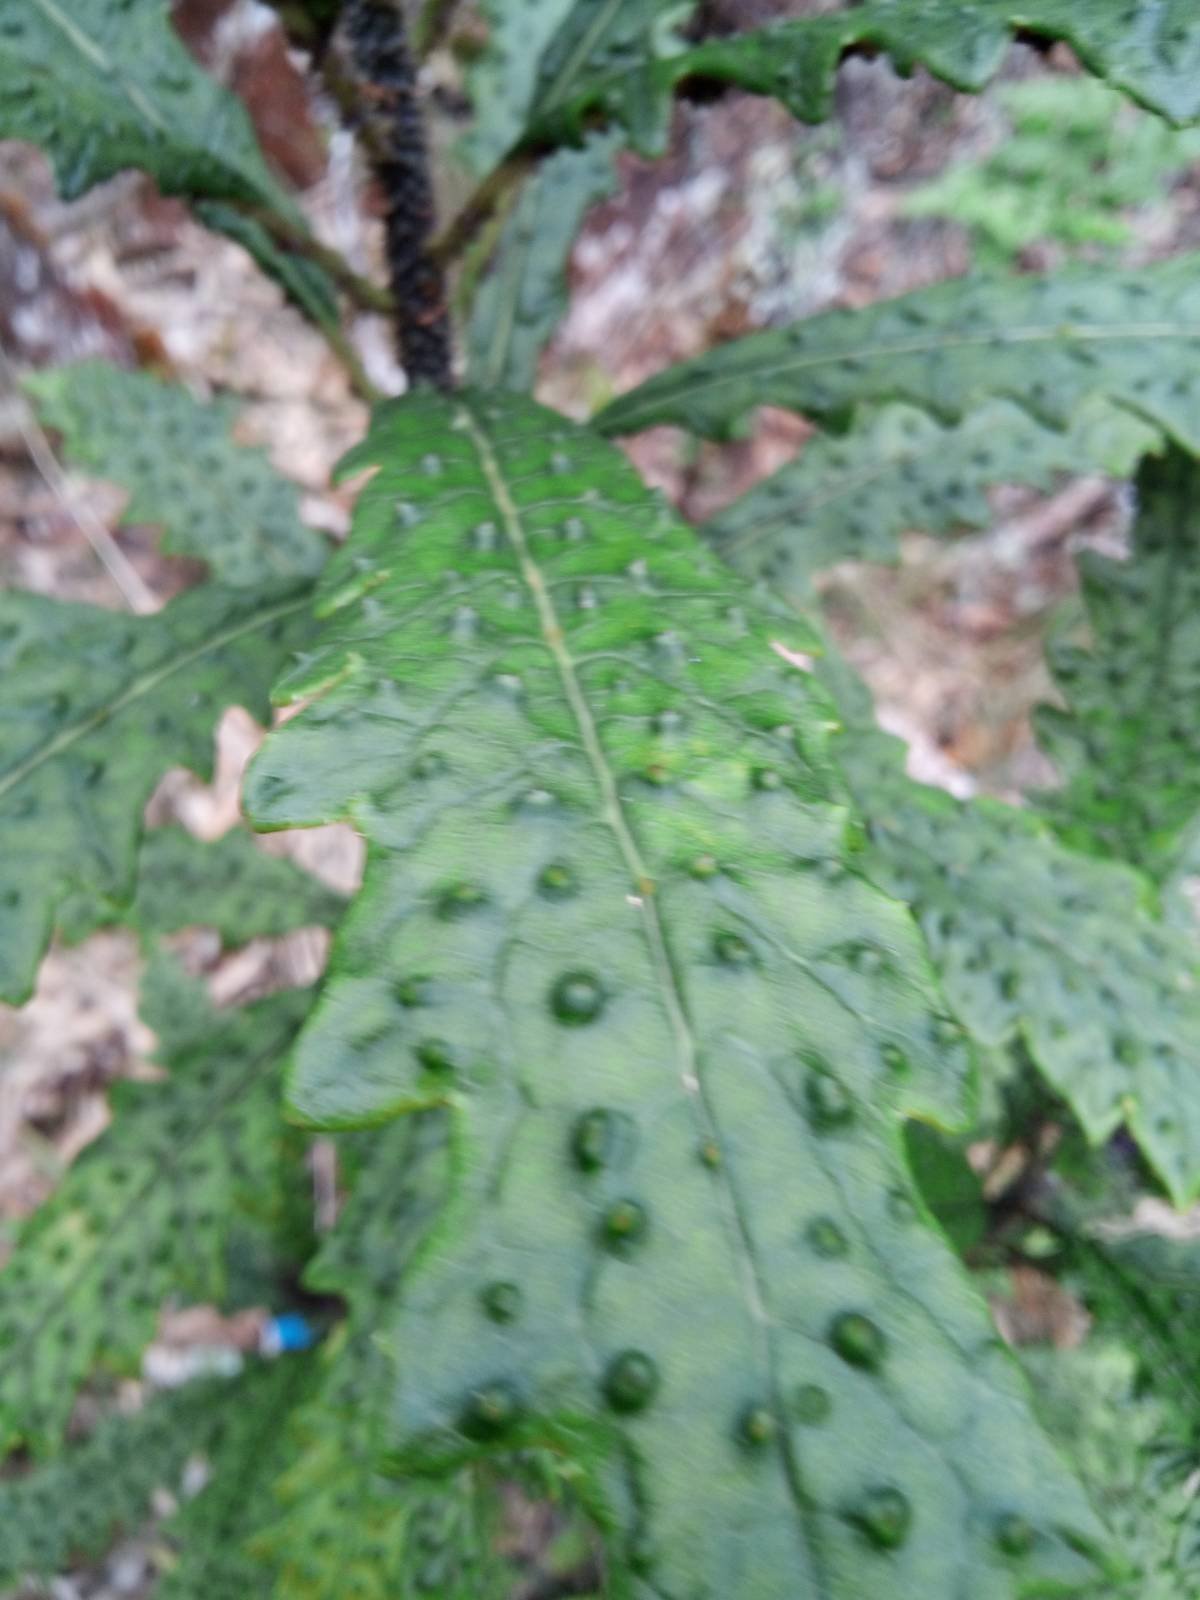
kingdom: Plantae
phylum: Tracheophyta
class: Magnoliopsida
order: Asterales
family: Campanulaceae
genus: Cyanea
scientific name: Cyanea stictophylla
